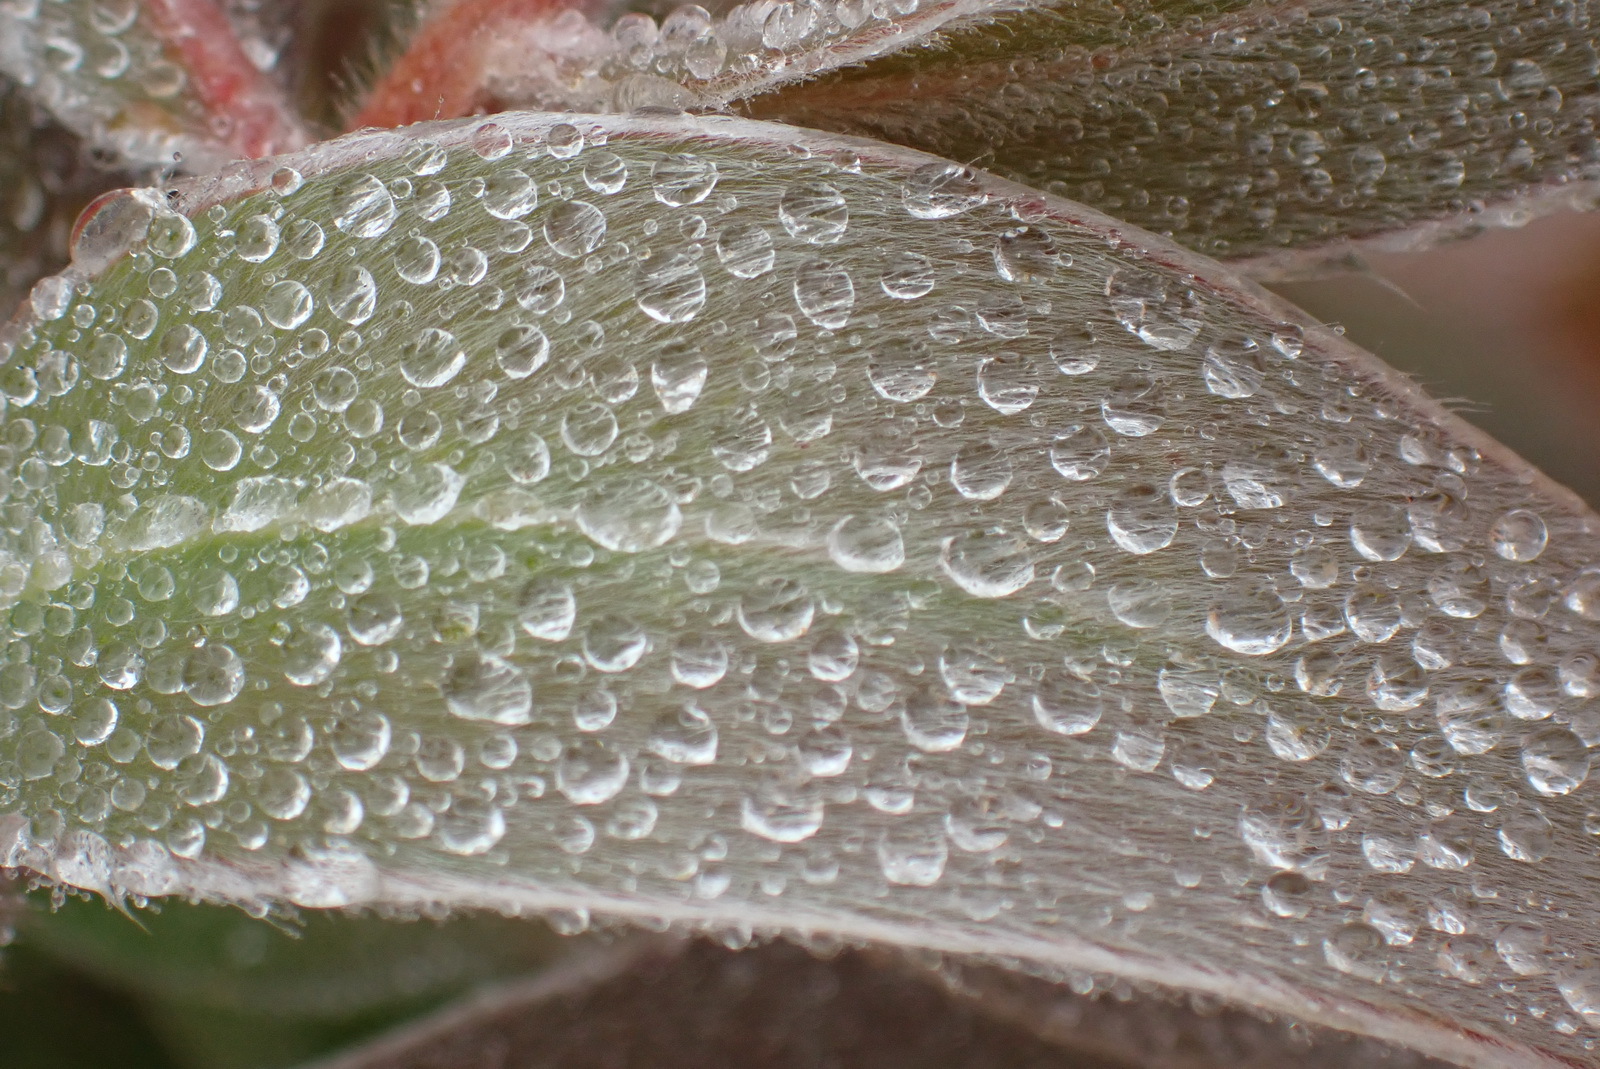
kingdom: Plantae
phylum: Tracheophyta
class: Magnoliopsida
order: Proteales
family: Proteaceae
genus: Protea
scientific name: Protea aurea
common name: Shuttlecock sugarbush
